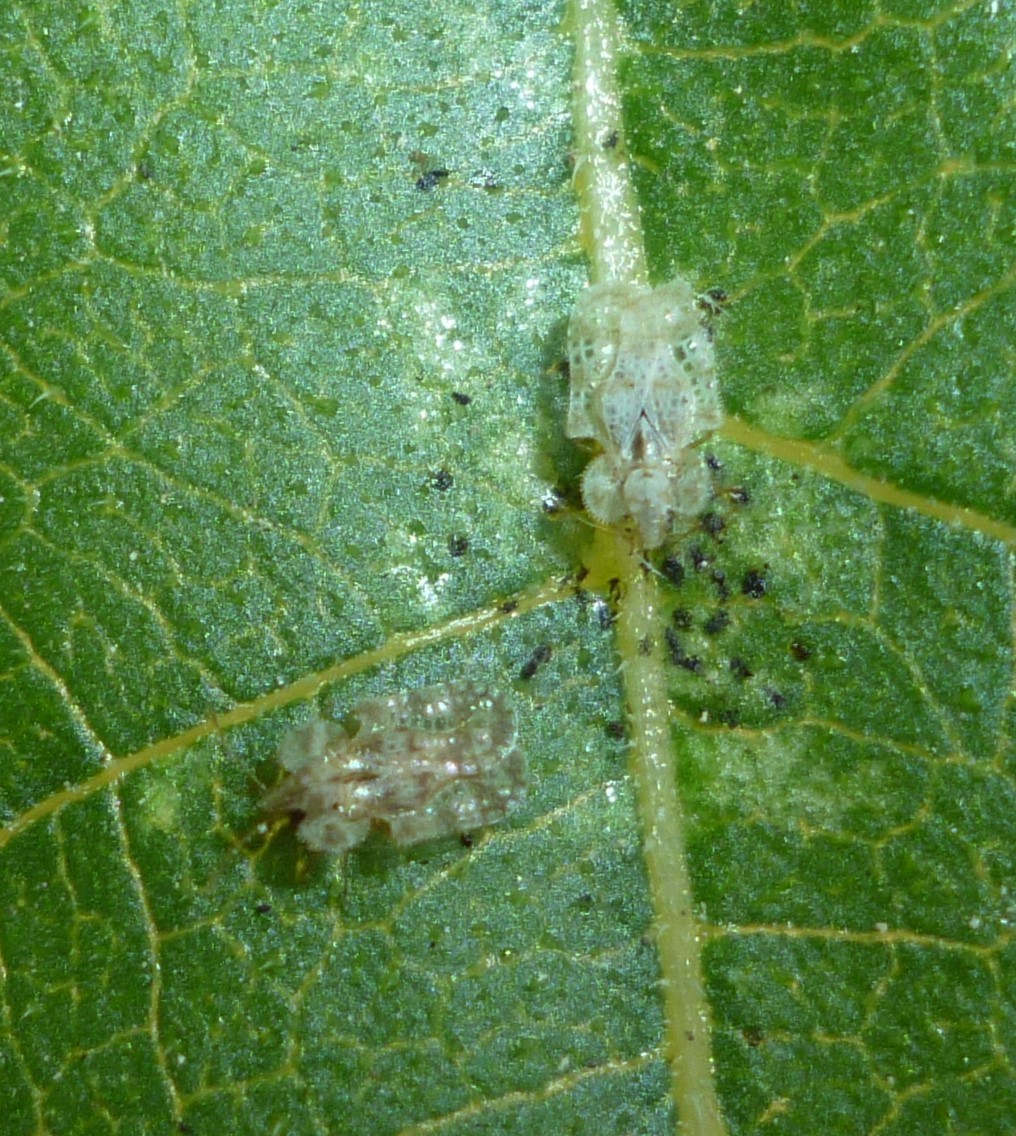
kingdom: Animalia
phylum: Arthropoda
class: Insecta
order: Hemiptera
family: Tingidae
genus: Corythucha
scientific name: Corythucha marmorata
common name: Chrysanthemum lace bug
